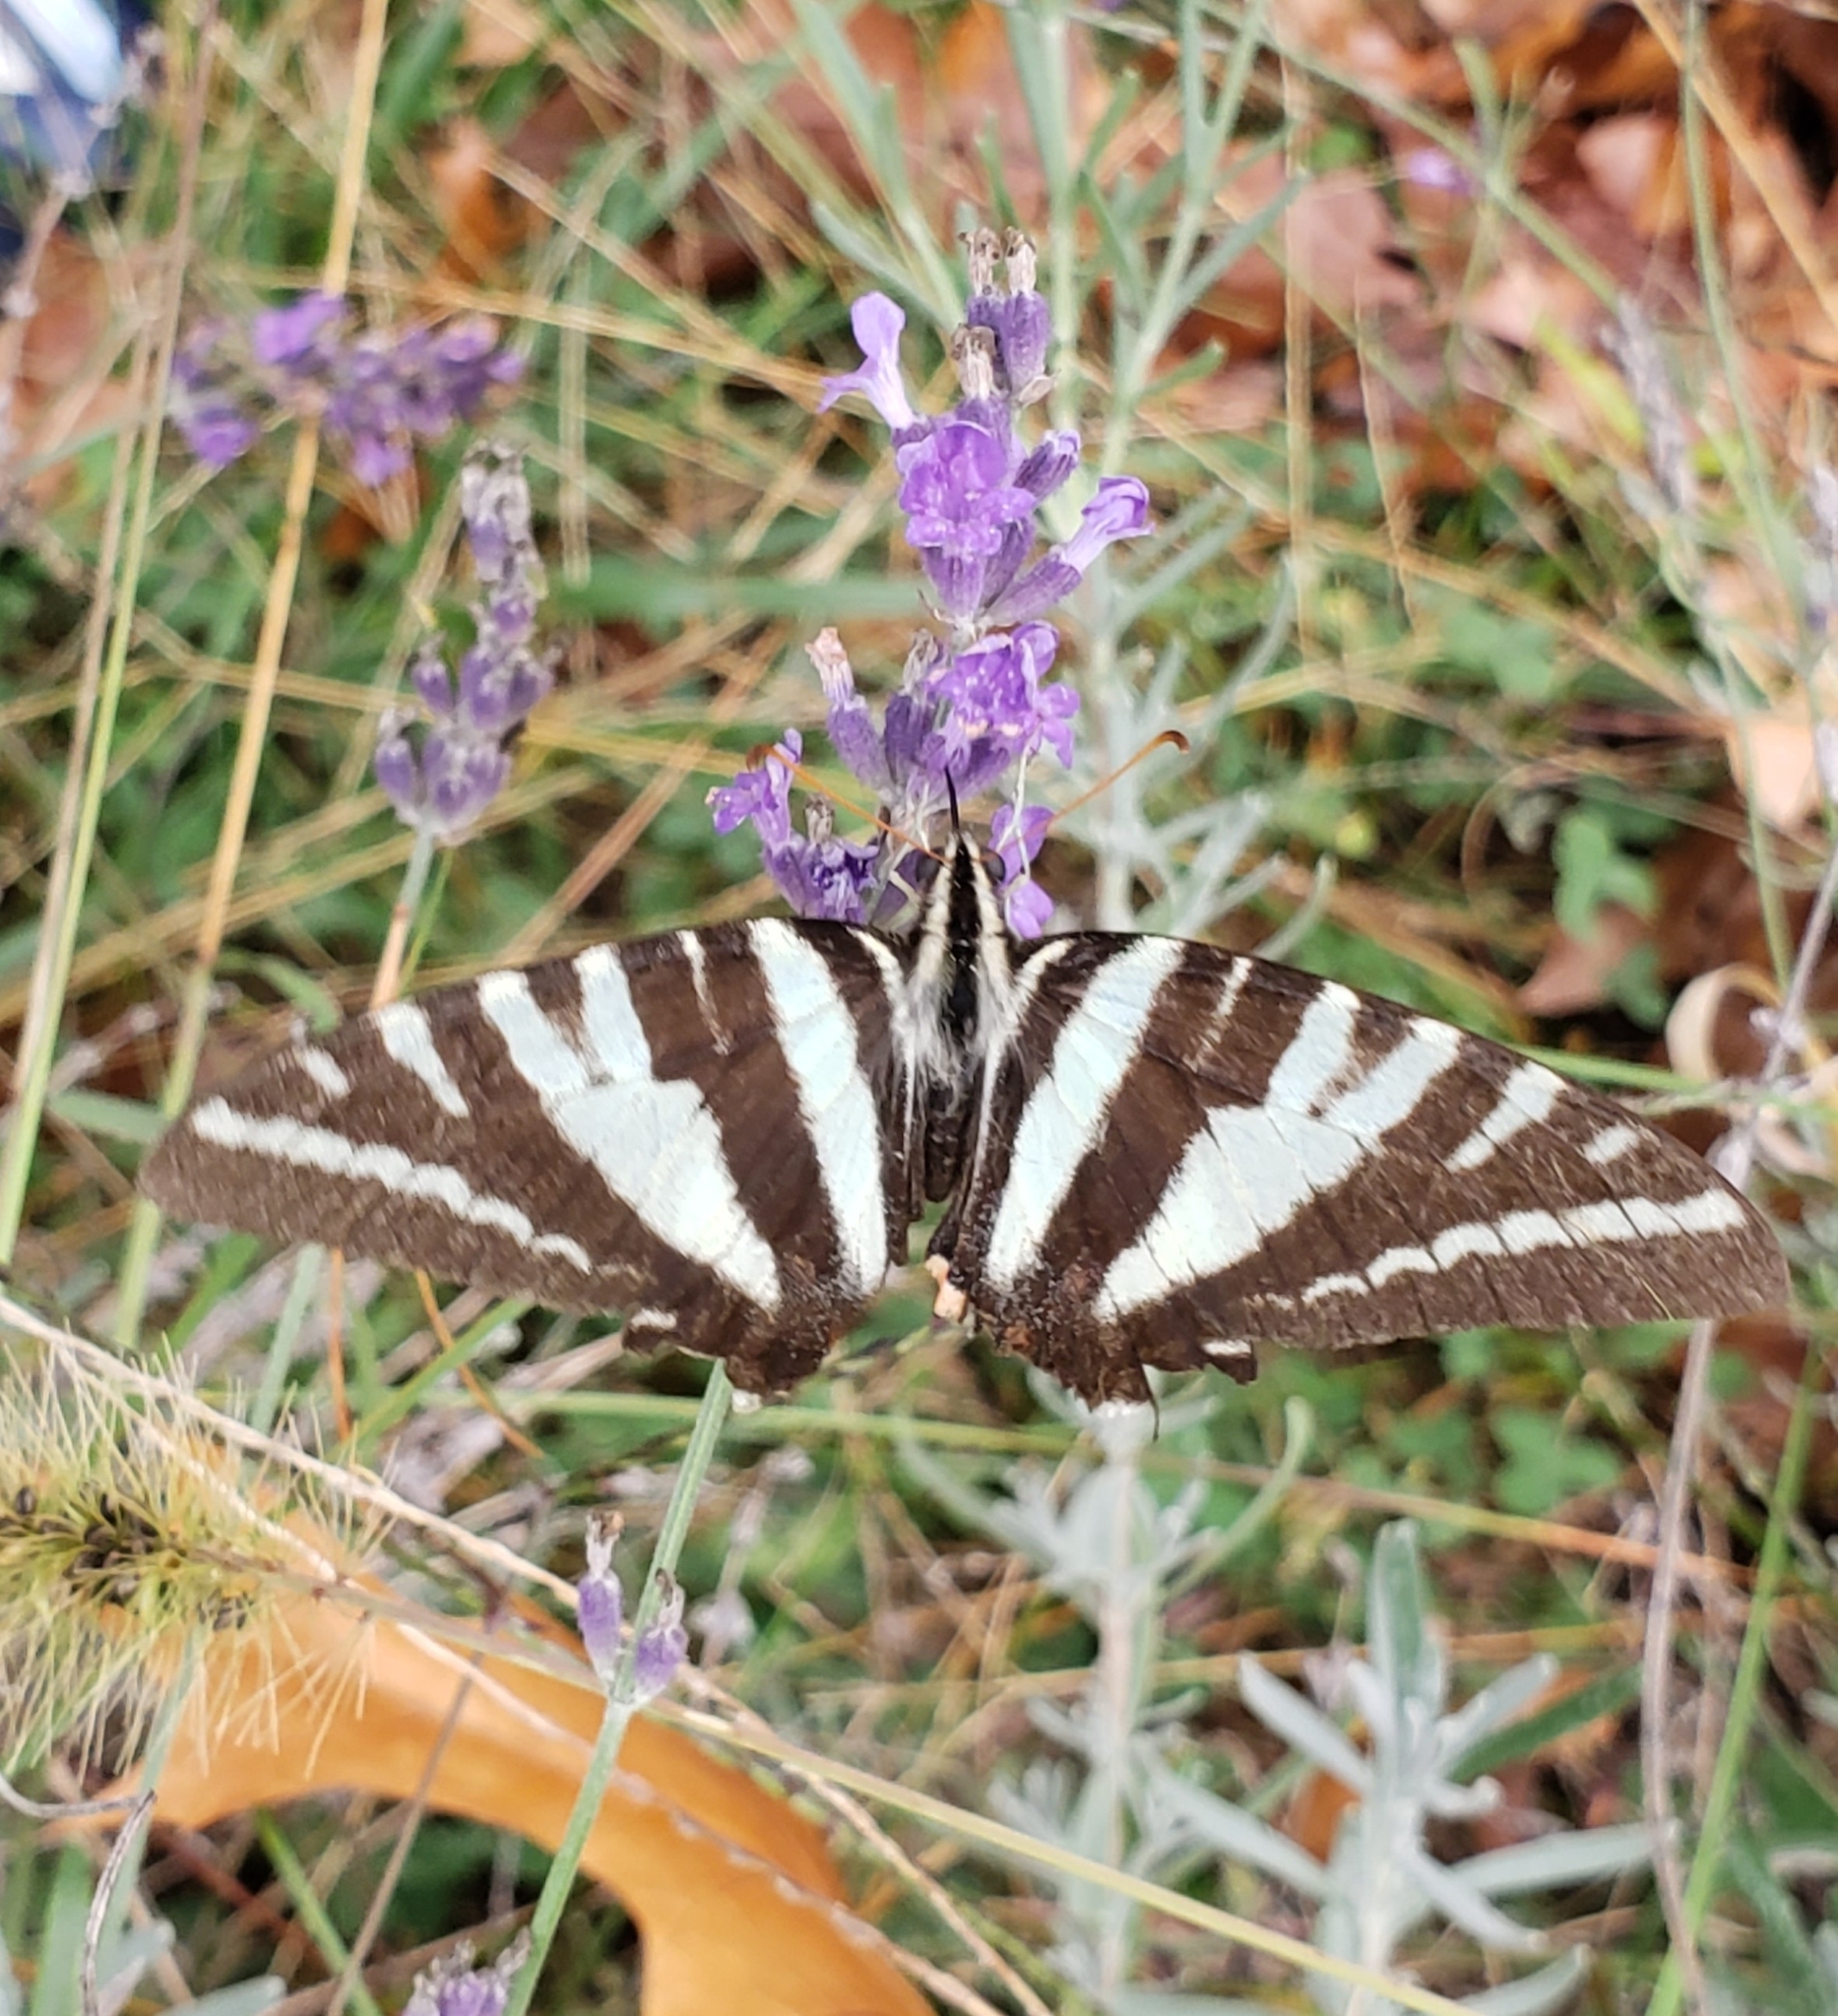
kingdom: Animalia
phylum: Arthropoda
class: Insecta
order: Lepidoptera
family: Papilionidae
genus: Protographium
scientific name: Protographium marcellus
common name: Zebra swallowtail
